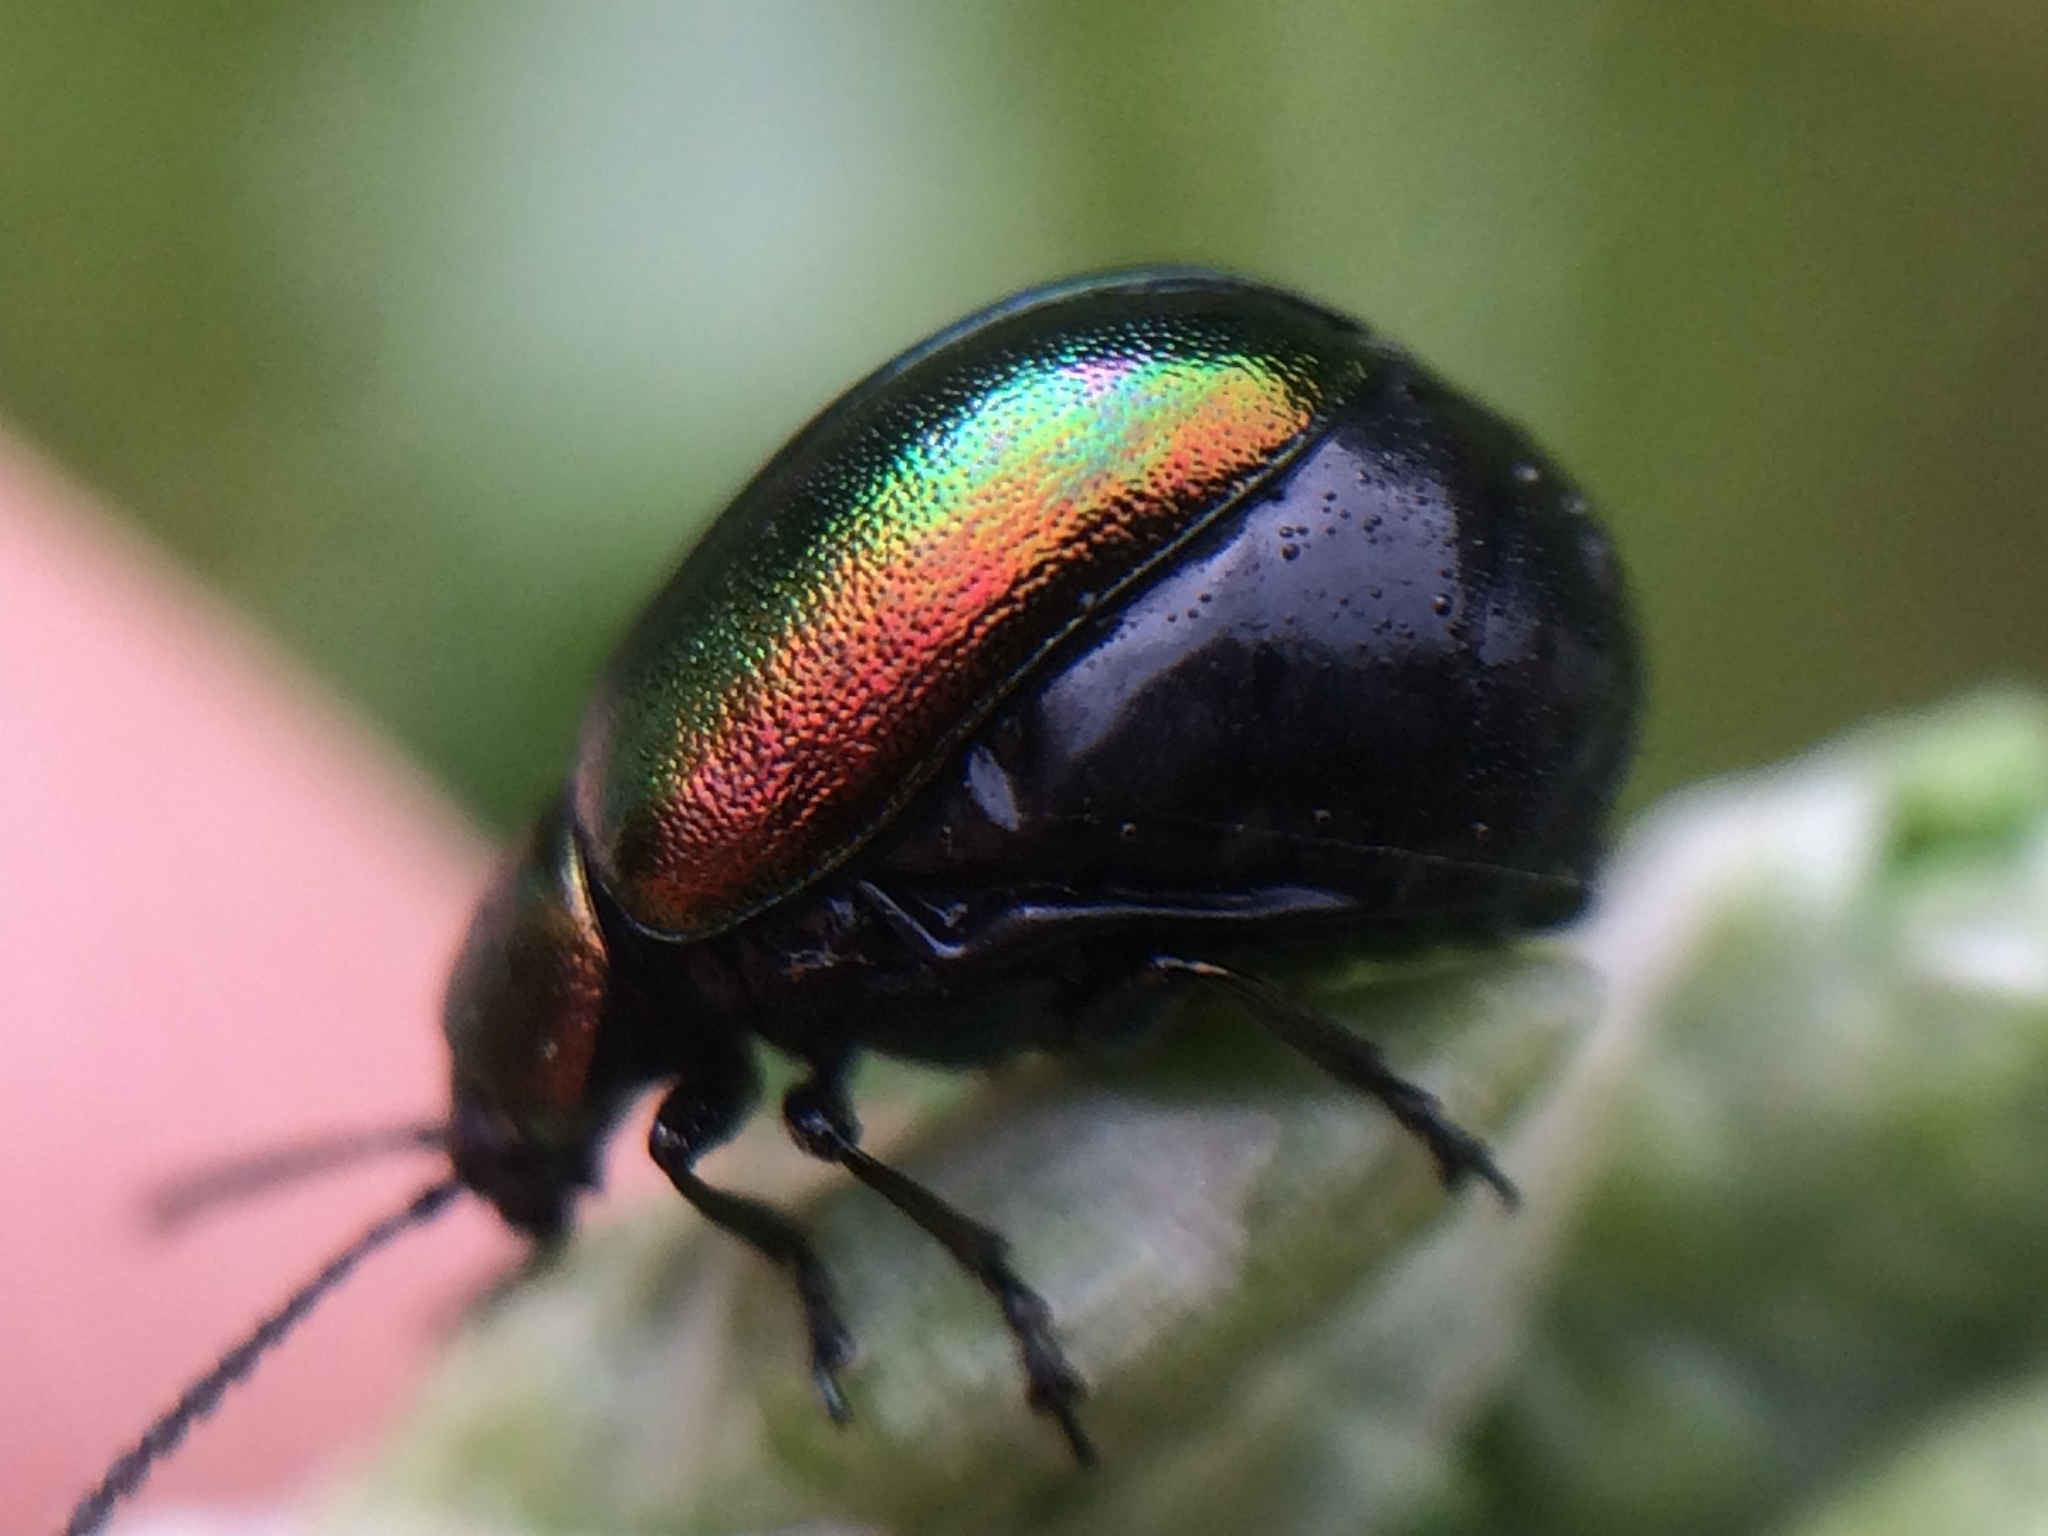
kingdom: Animalia
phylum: Arthropoda
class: Insecta
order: Coleoptera
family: Chrysomelidae
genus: Gastrophysa
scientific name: Gastrophysa cyanea
